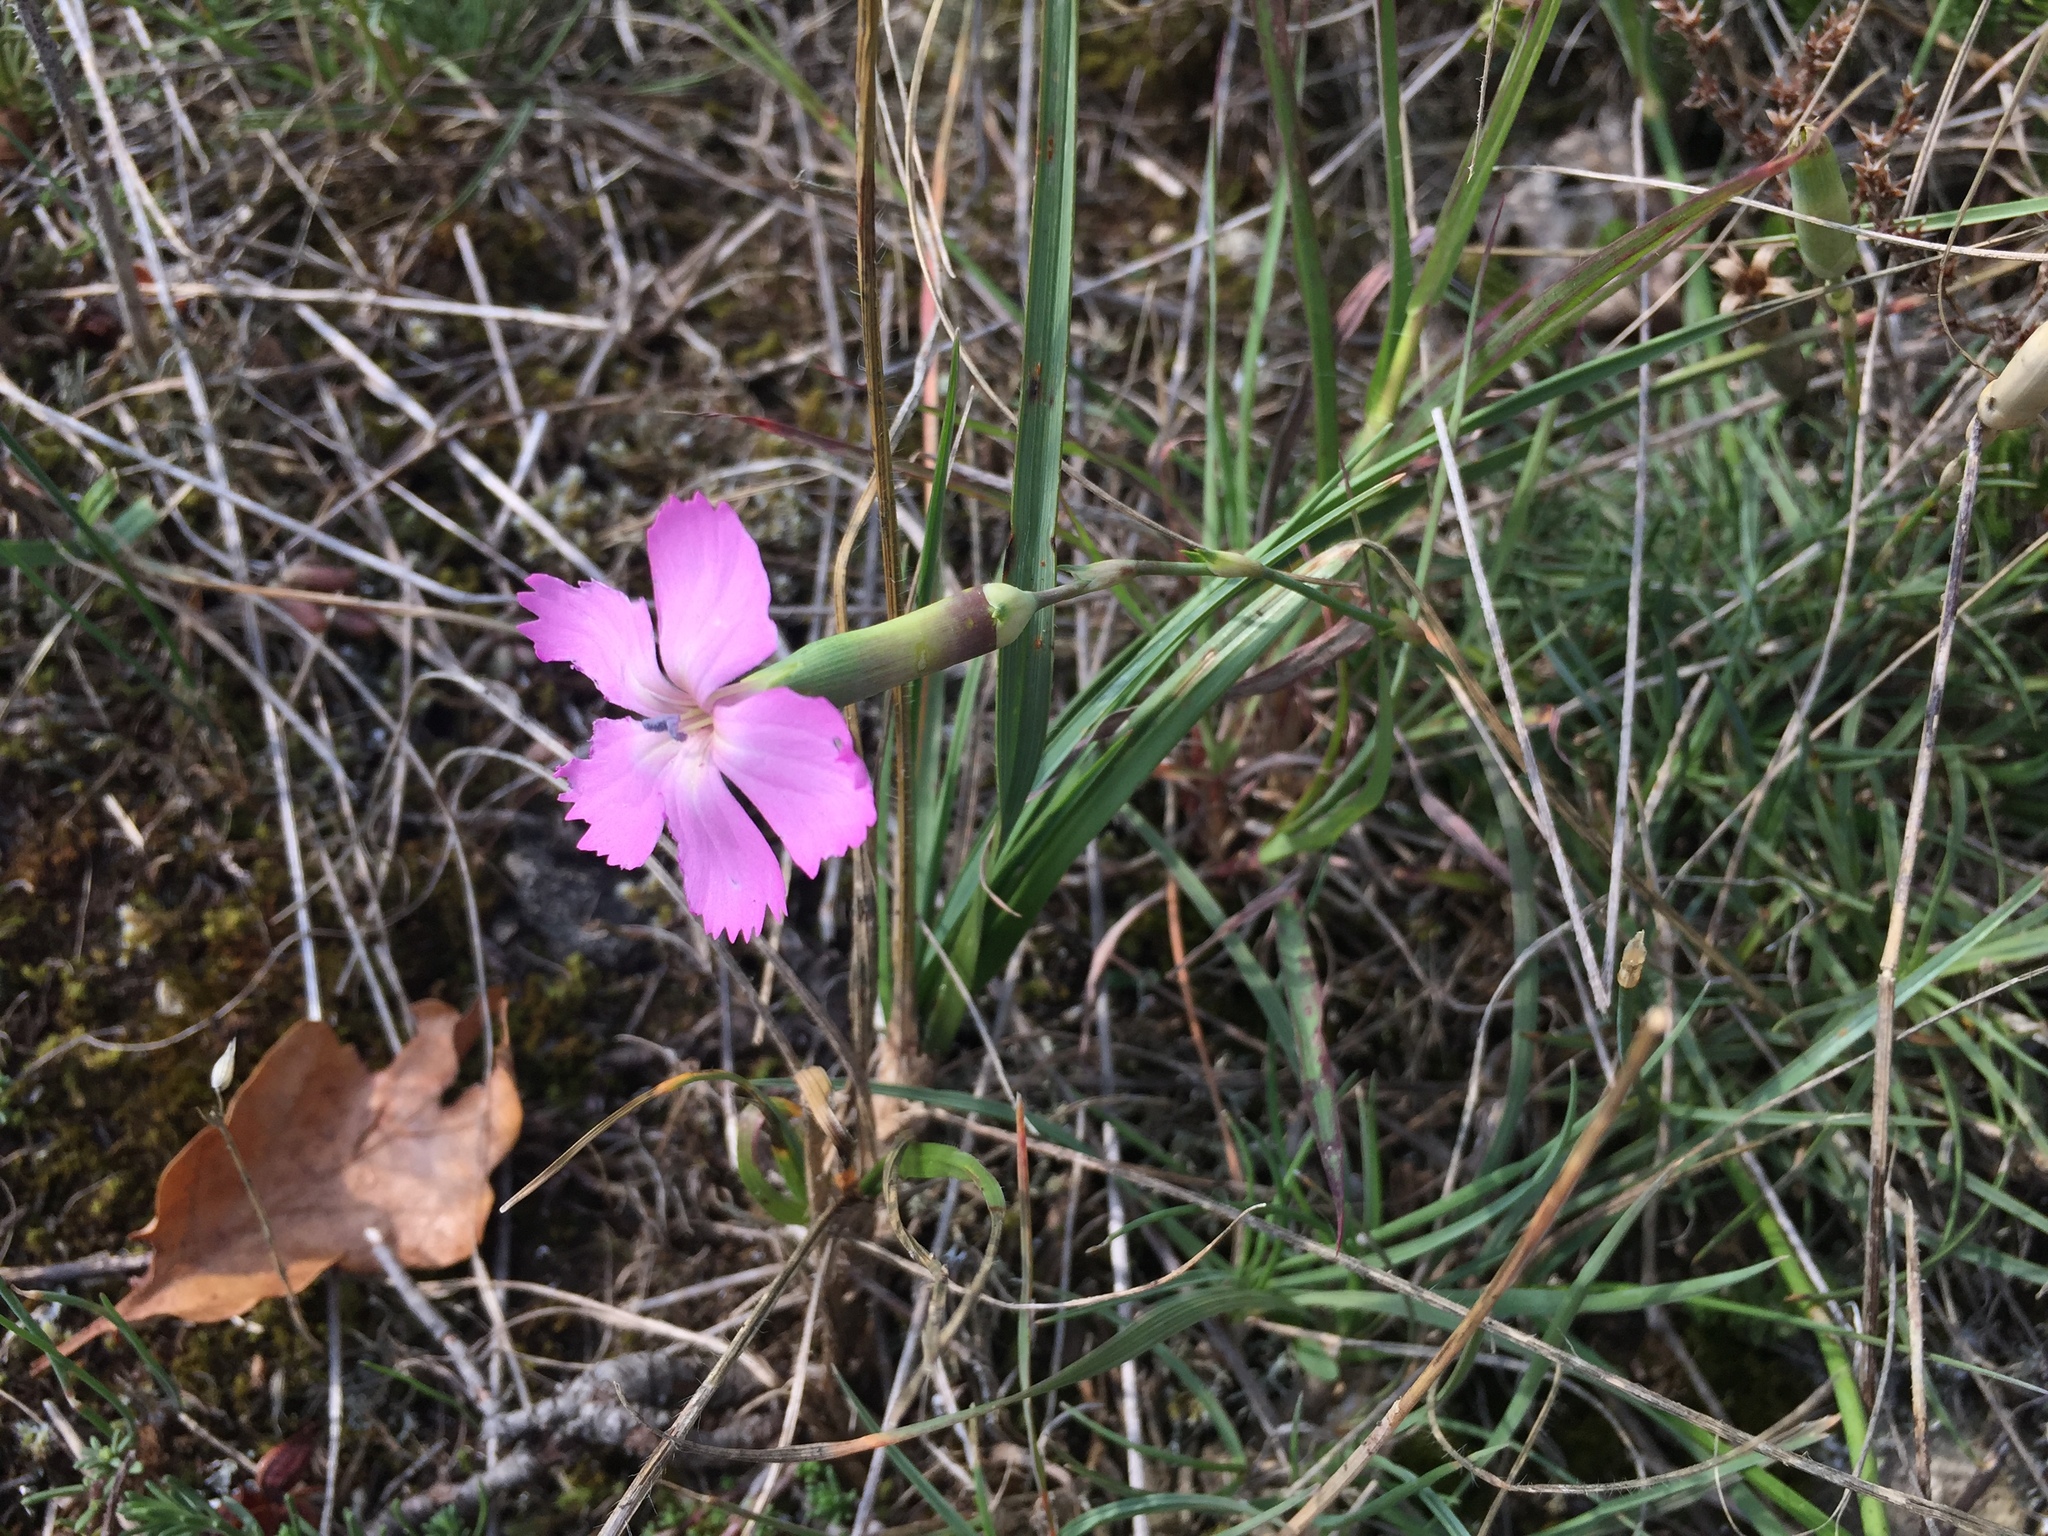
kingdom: Plantae
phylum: Tracheophyta
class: Magnoliopsida
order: Caryophyllales
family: Caryophyllaceae
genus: Dianthus
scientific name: Dianthus sylvestris
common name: Wood pink
